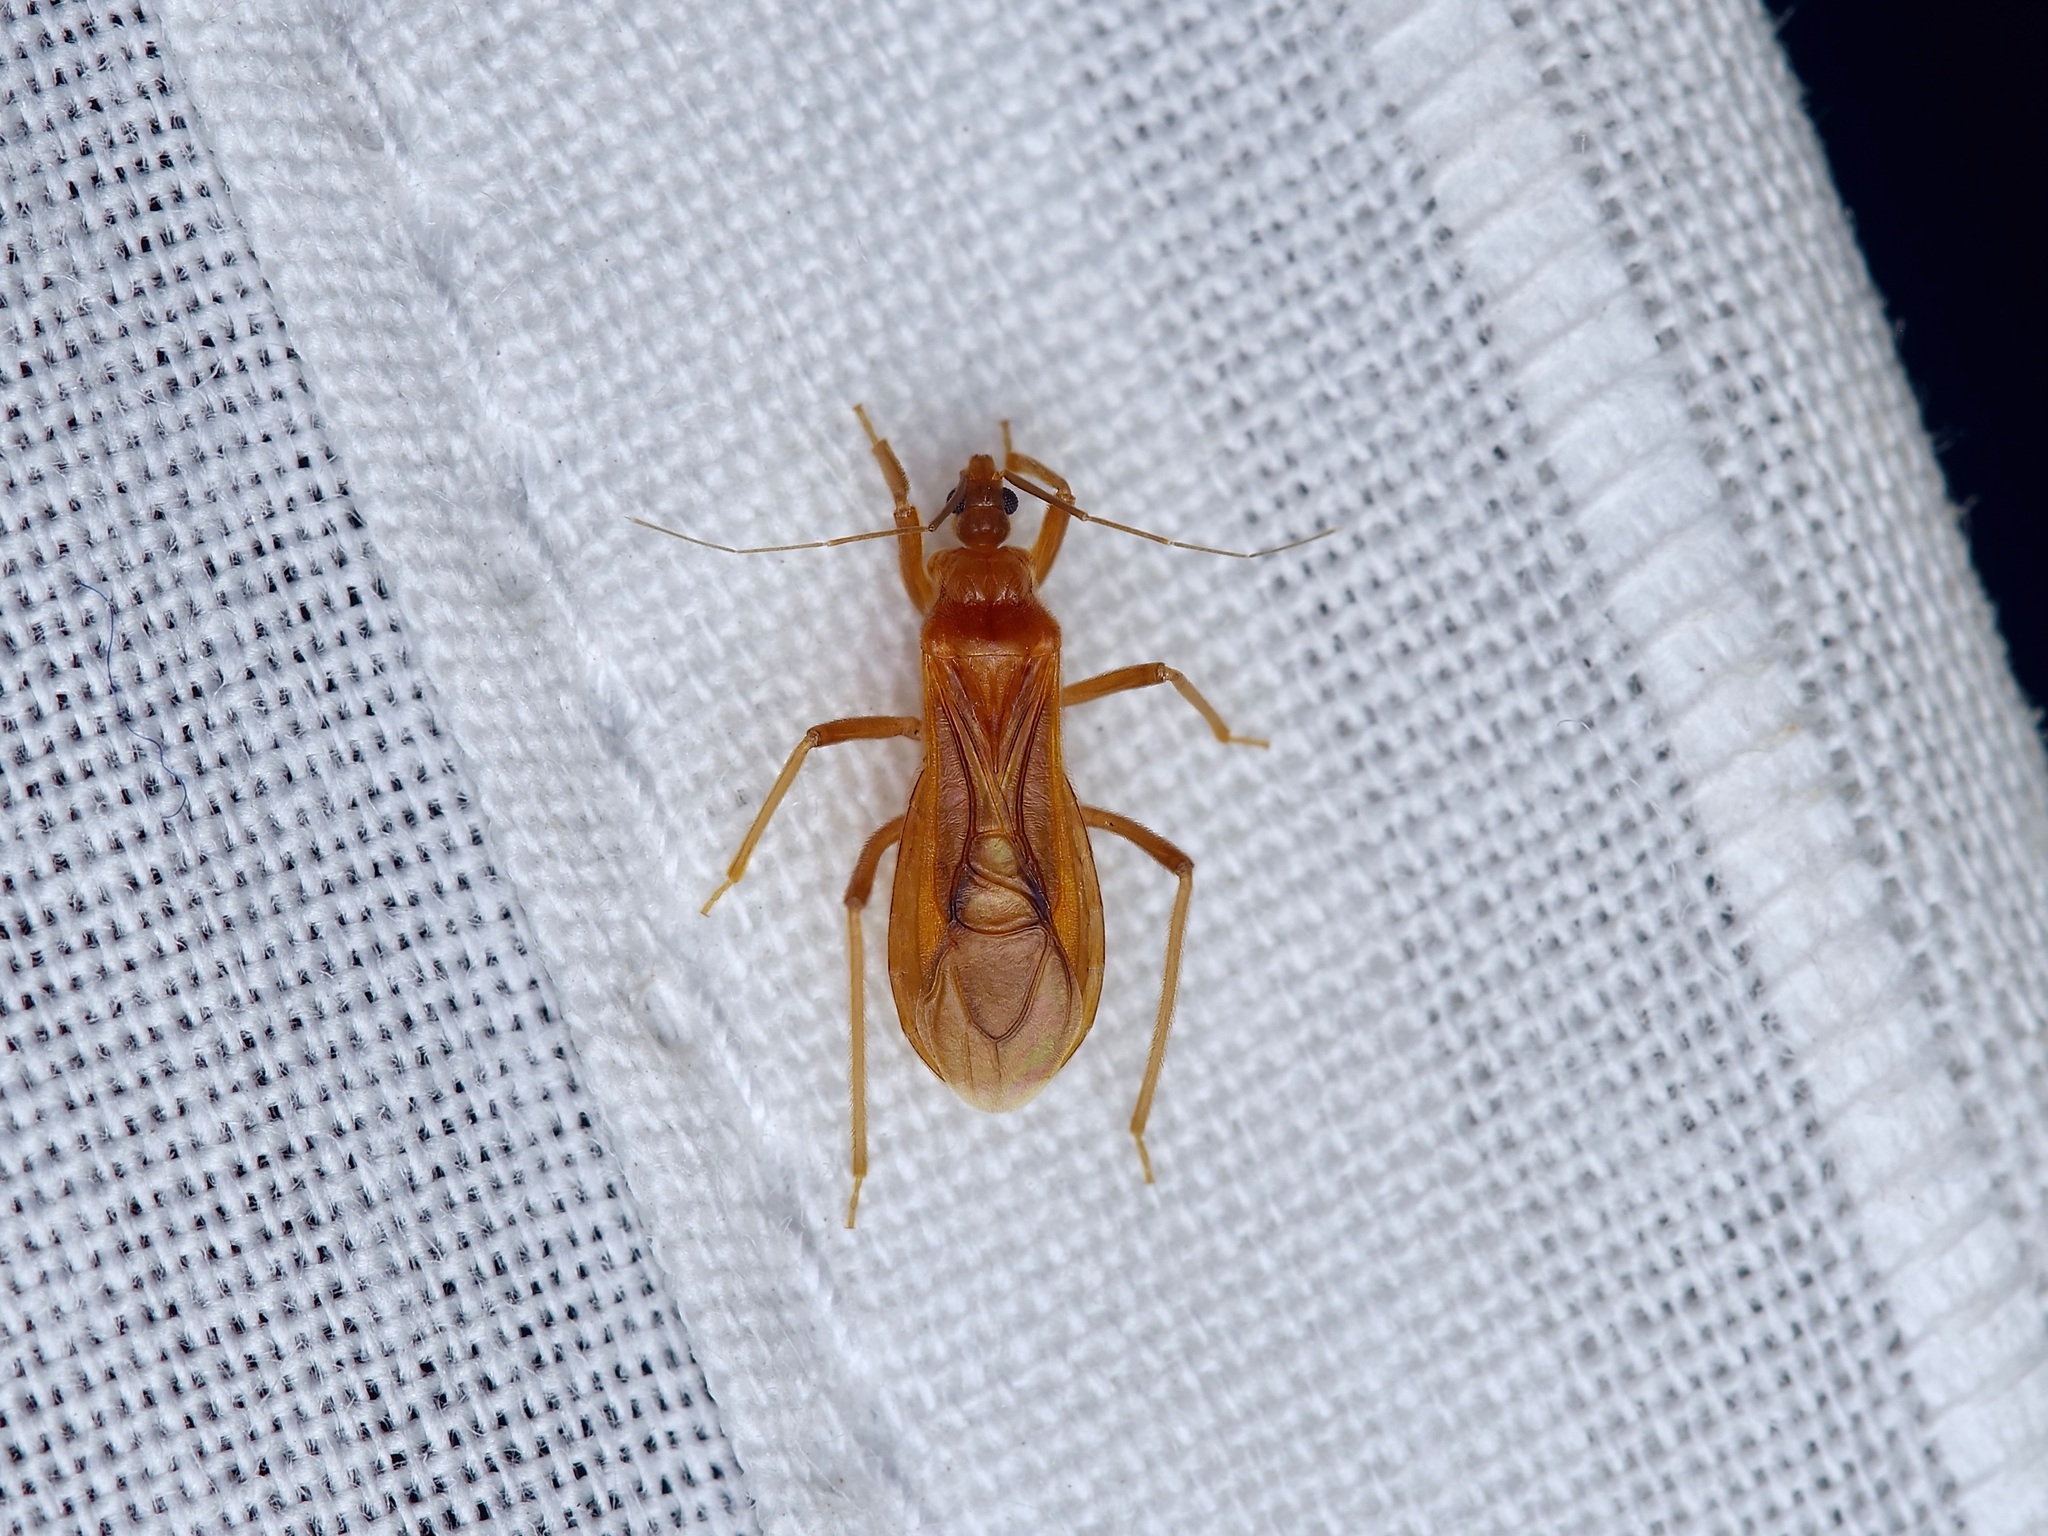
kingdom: Animalia
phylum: Arthropoda
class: Insecta
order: Hemiptera
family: Reduviidae
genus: Oncerotrachelus
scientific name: Oncerotrachelus pallidus
